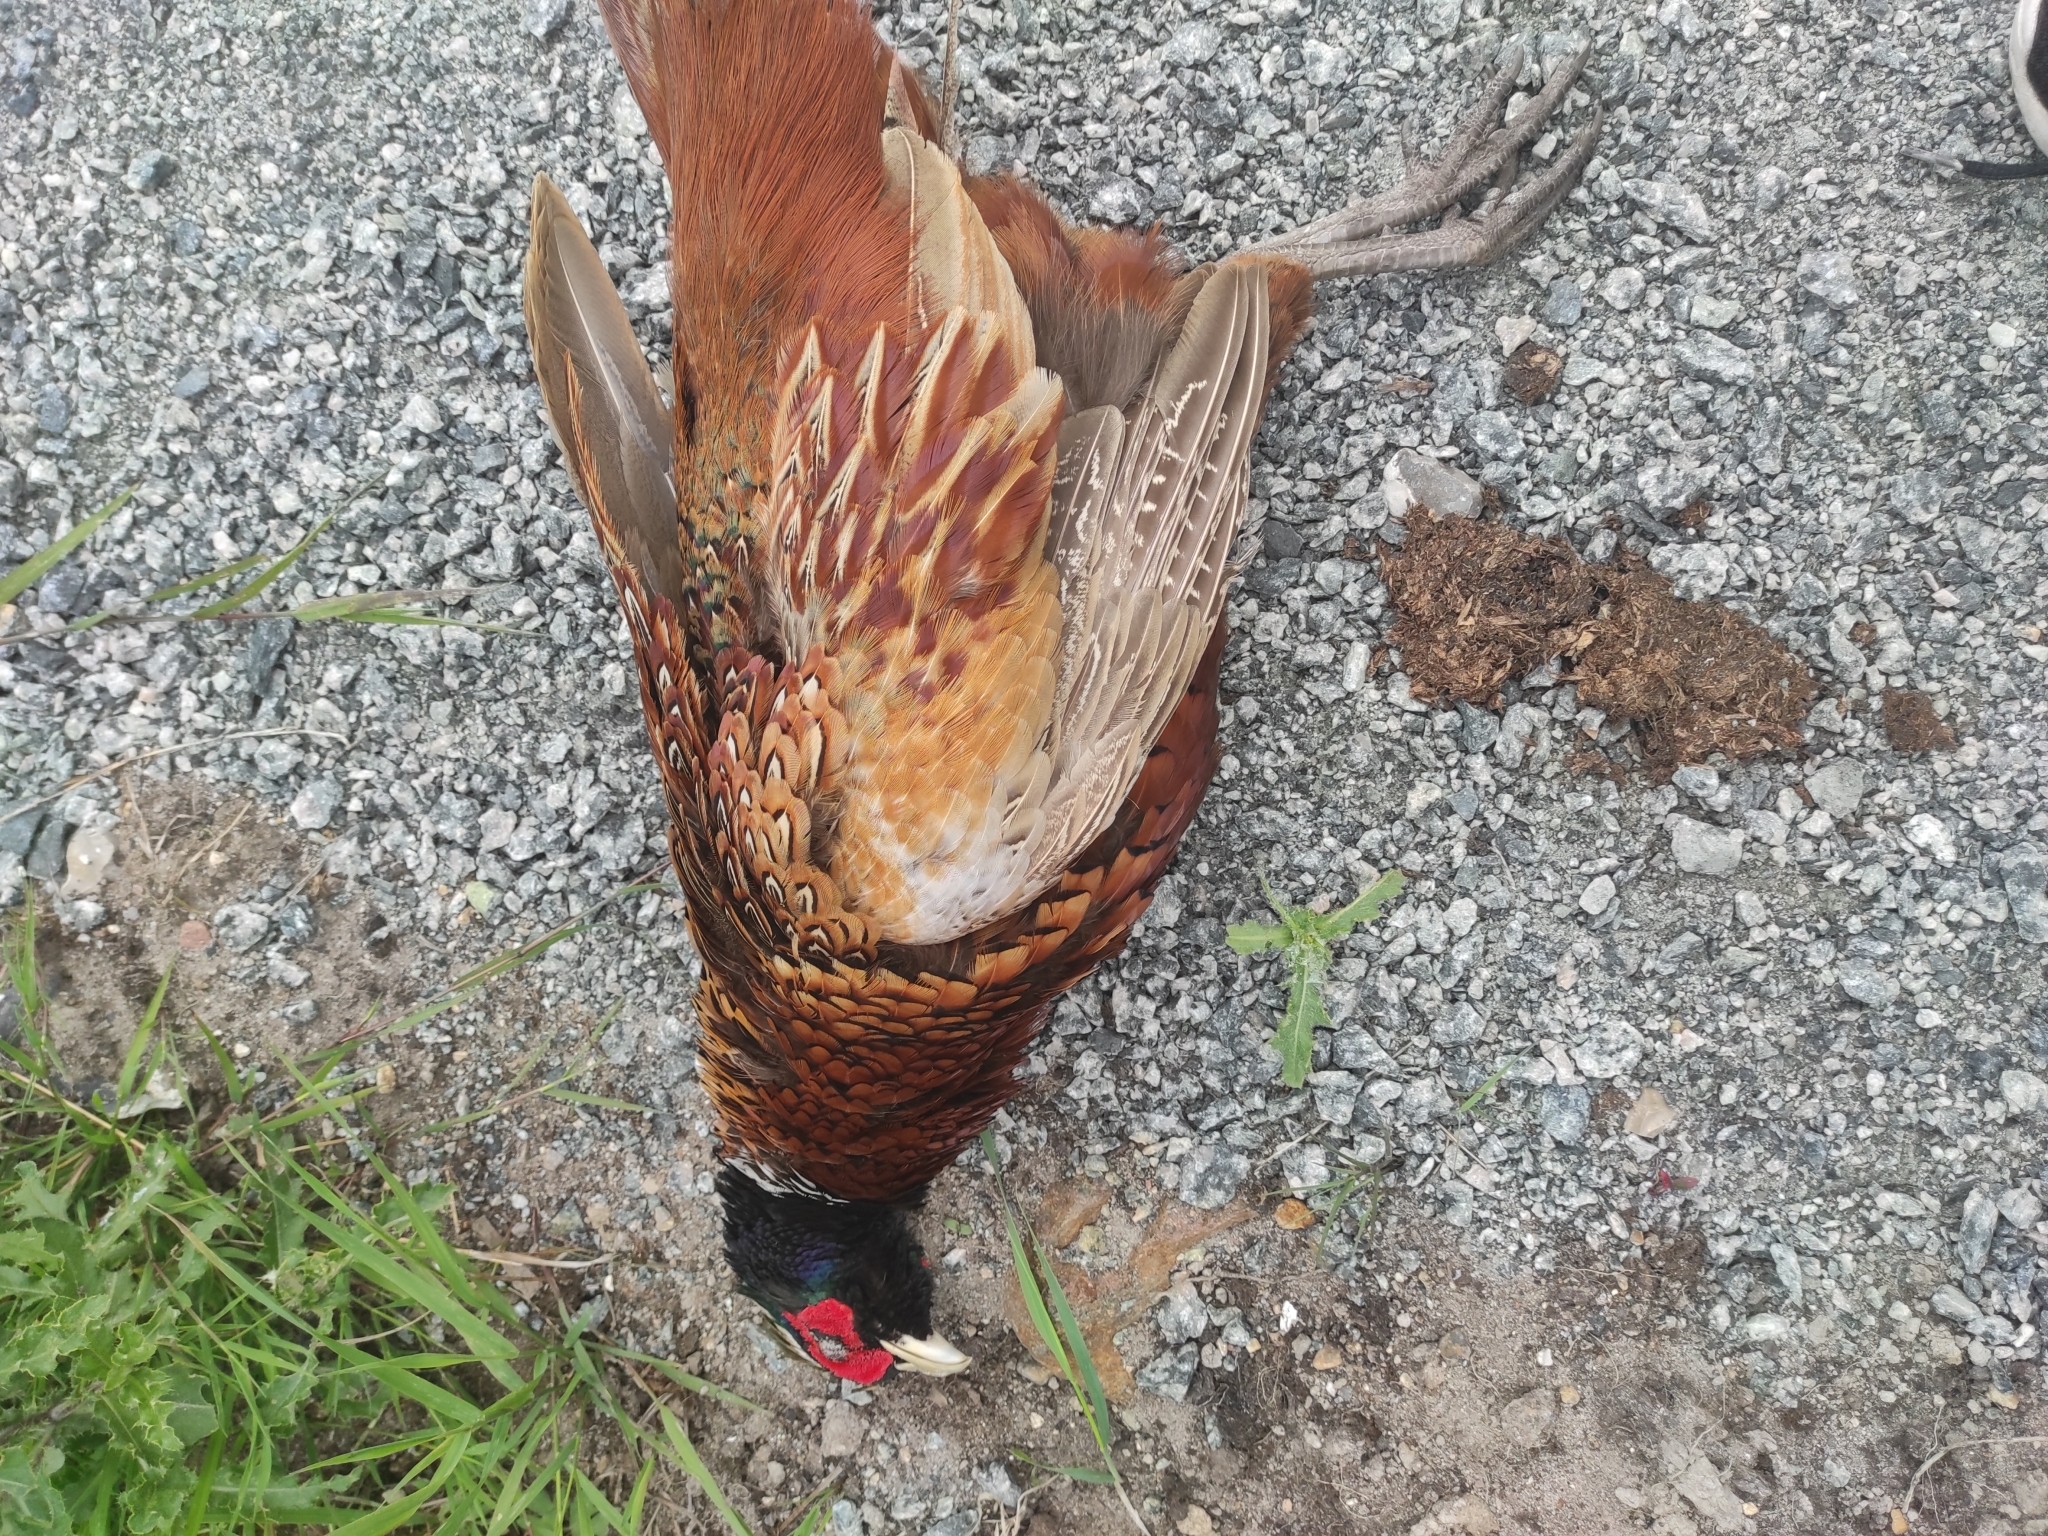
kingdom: Animalia
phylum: Chordata
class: Aves
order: Galliformes
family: Phasianidae
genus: Phasianus
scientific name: Phasianus colchicus
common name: Common pheasant
